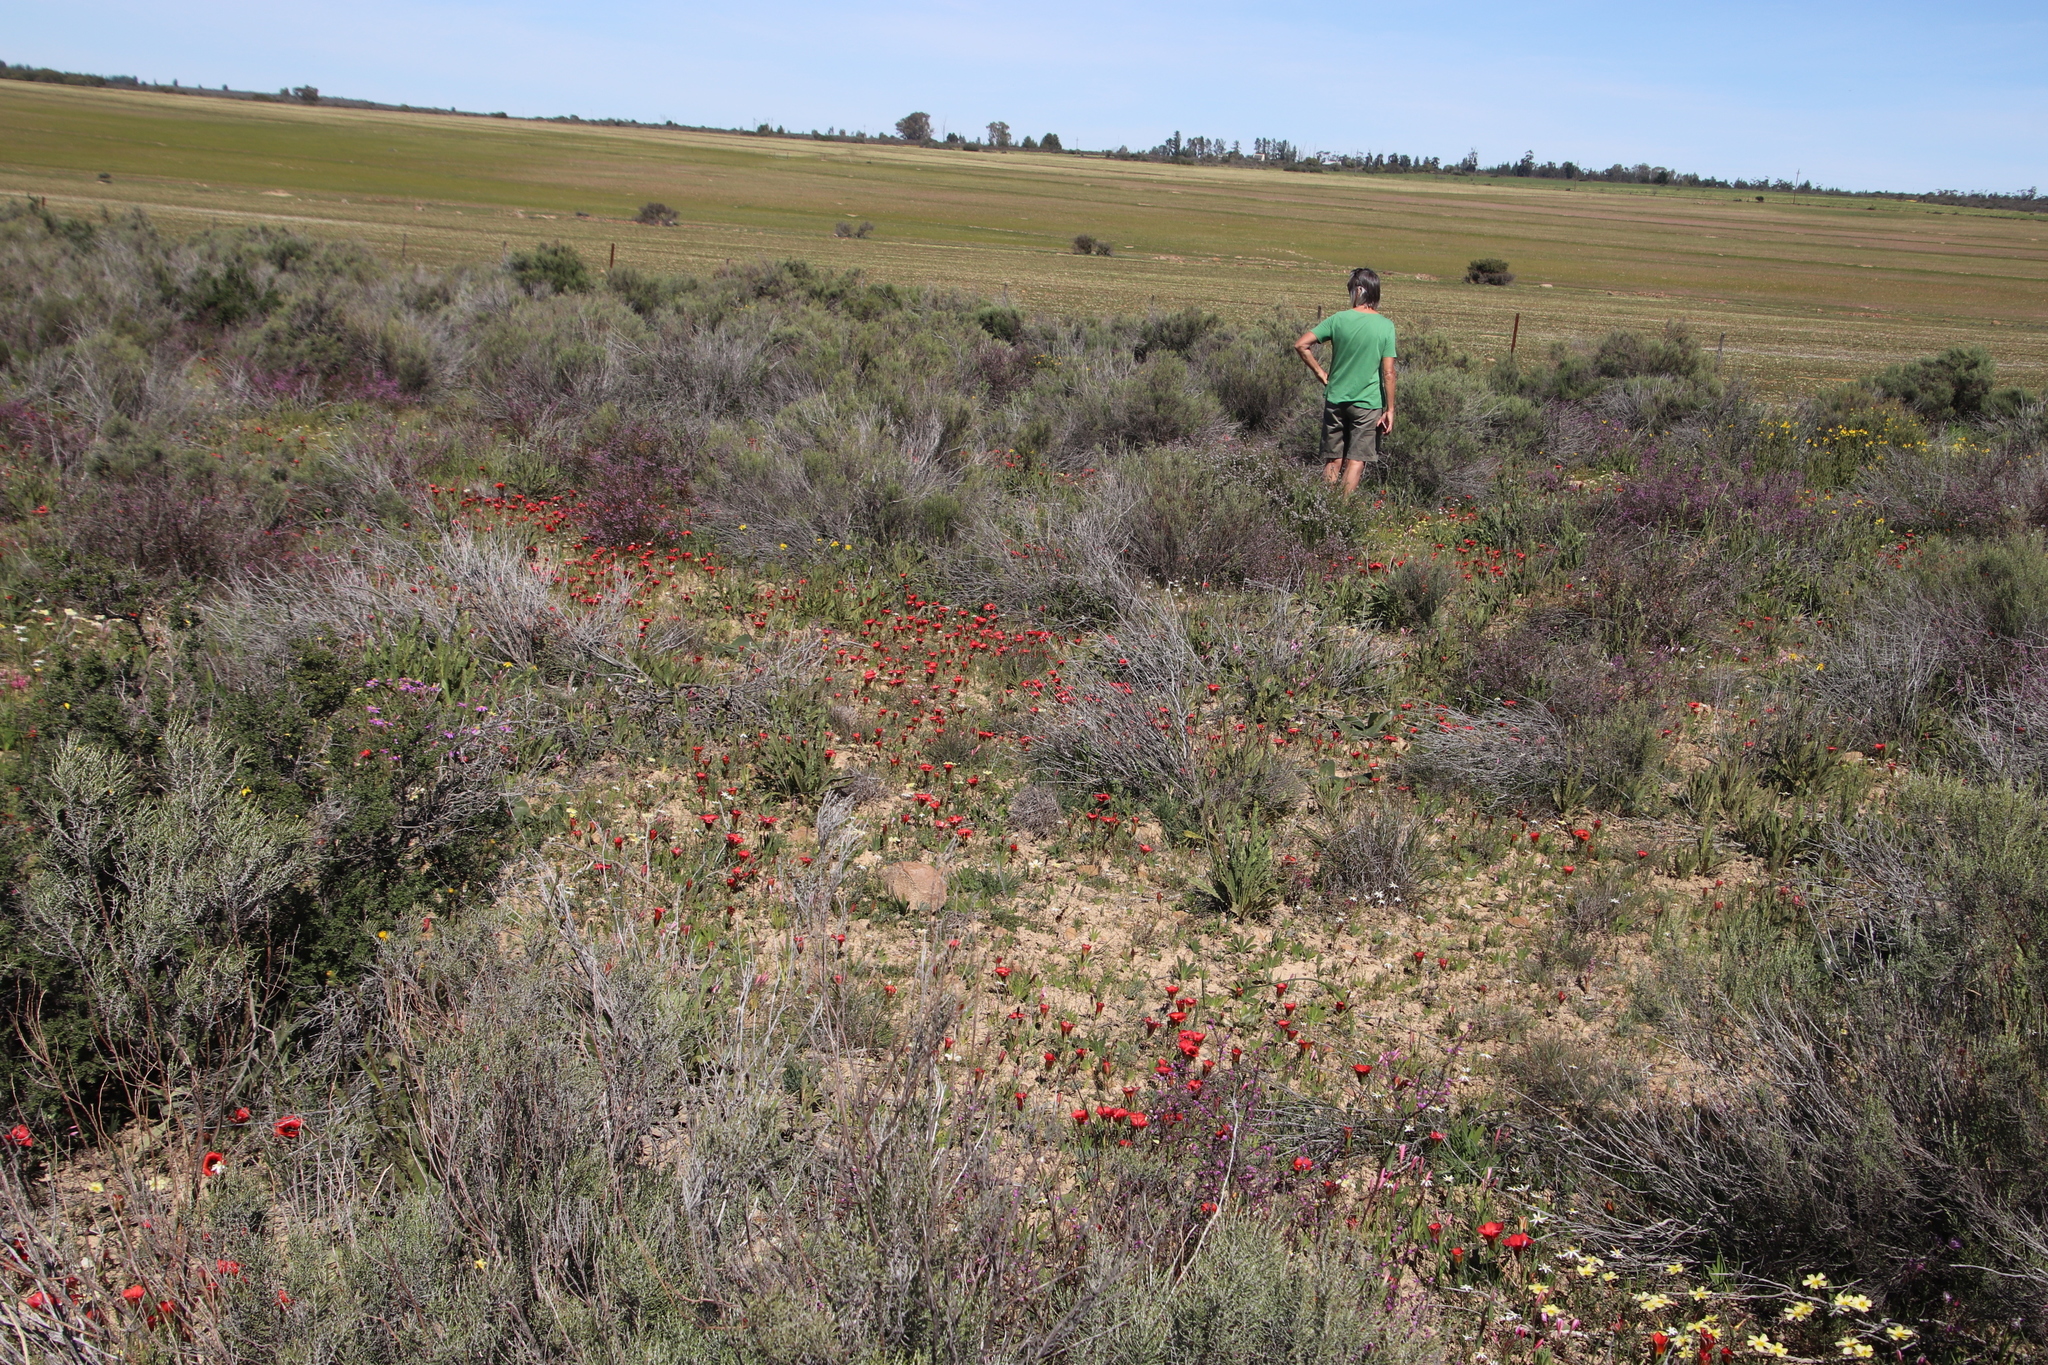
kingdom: Plantae
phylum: Tracheophyta
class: Liliopsida
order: Asparagales
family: Iridaceae
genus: Romulea
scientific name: Romulea sabulosa
